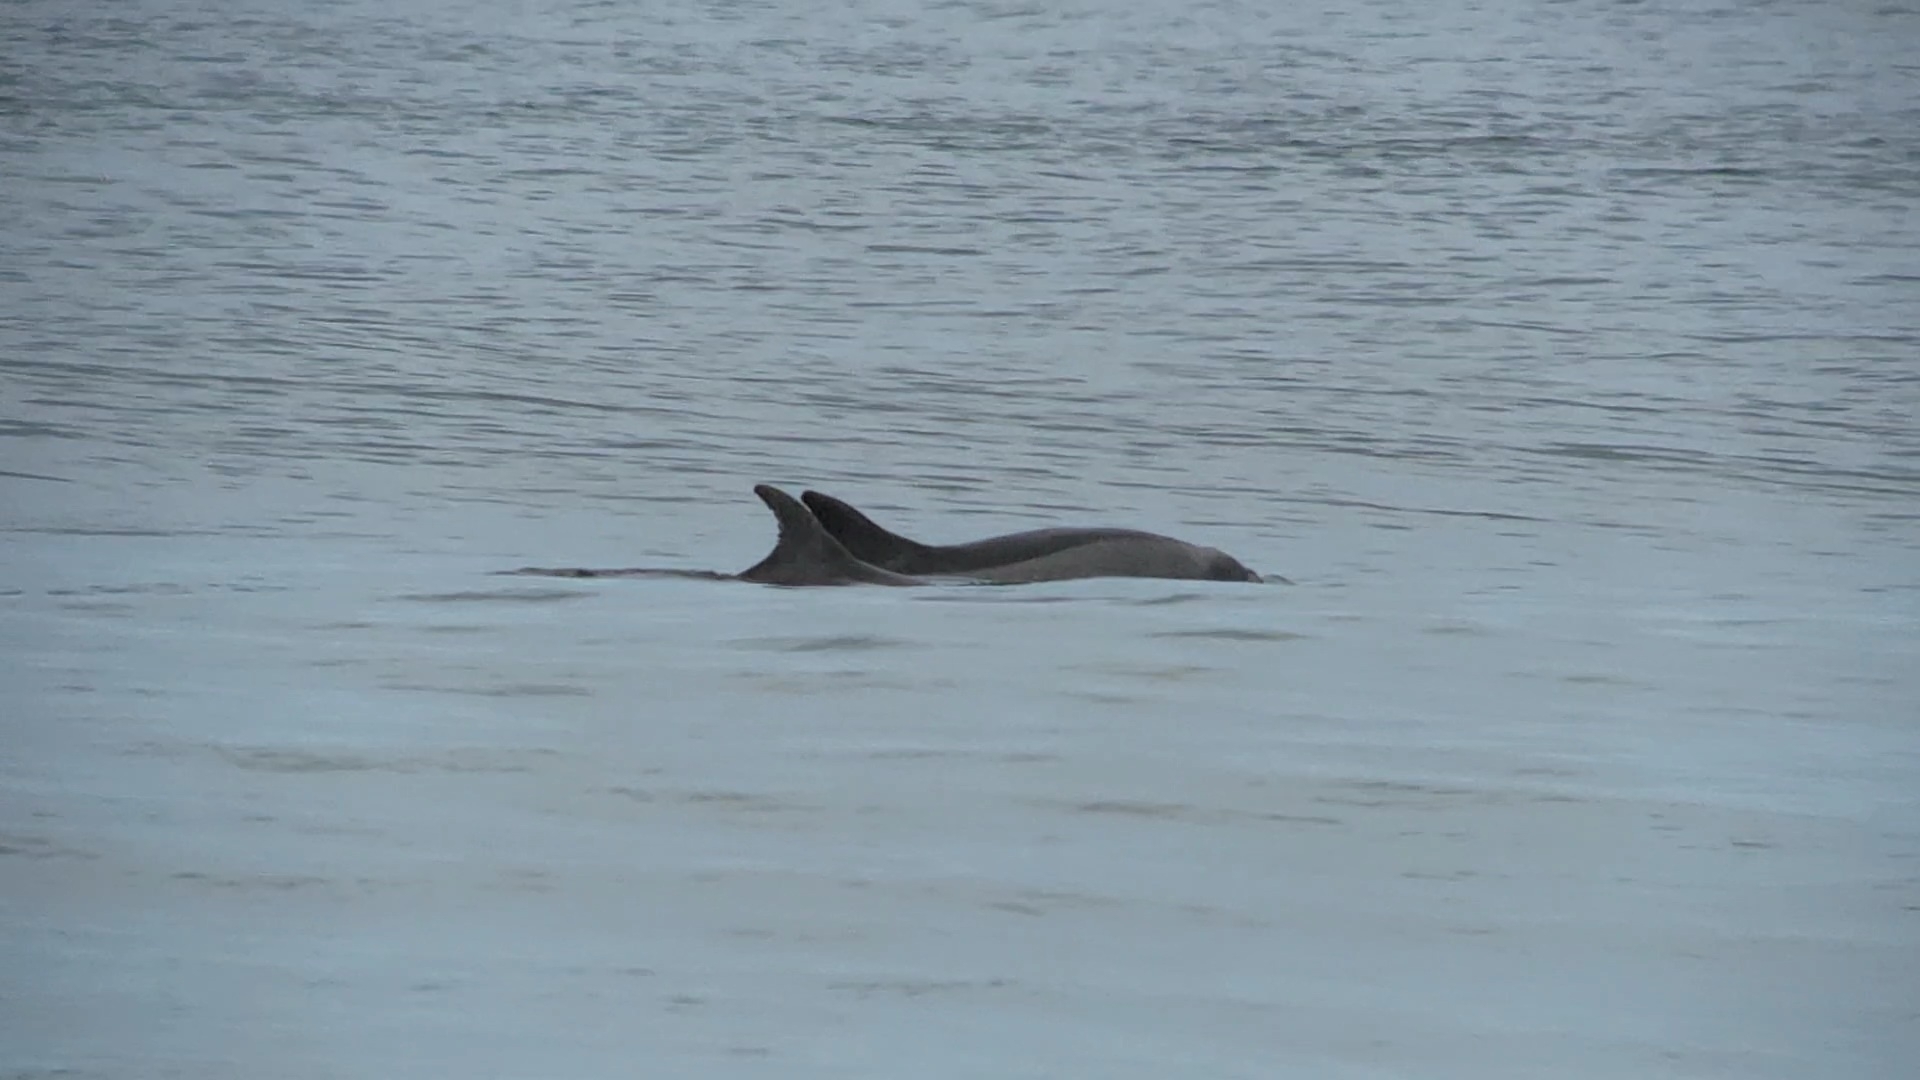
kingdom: Animalia
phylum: Chordata
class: Mammalia
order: Cetacea
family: Delphinidae
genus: Tursiops
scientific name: Tursiops truncatus
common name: Bottlenose dolphin
